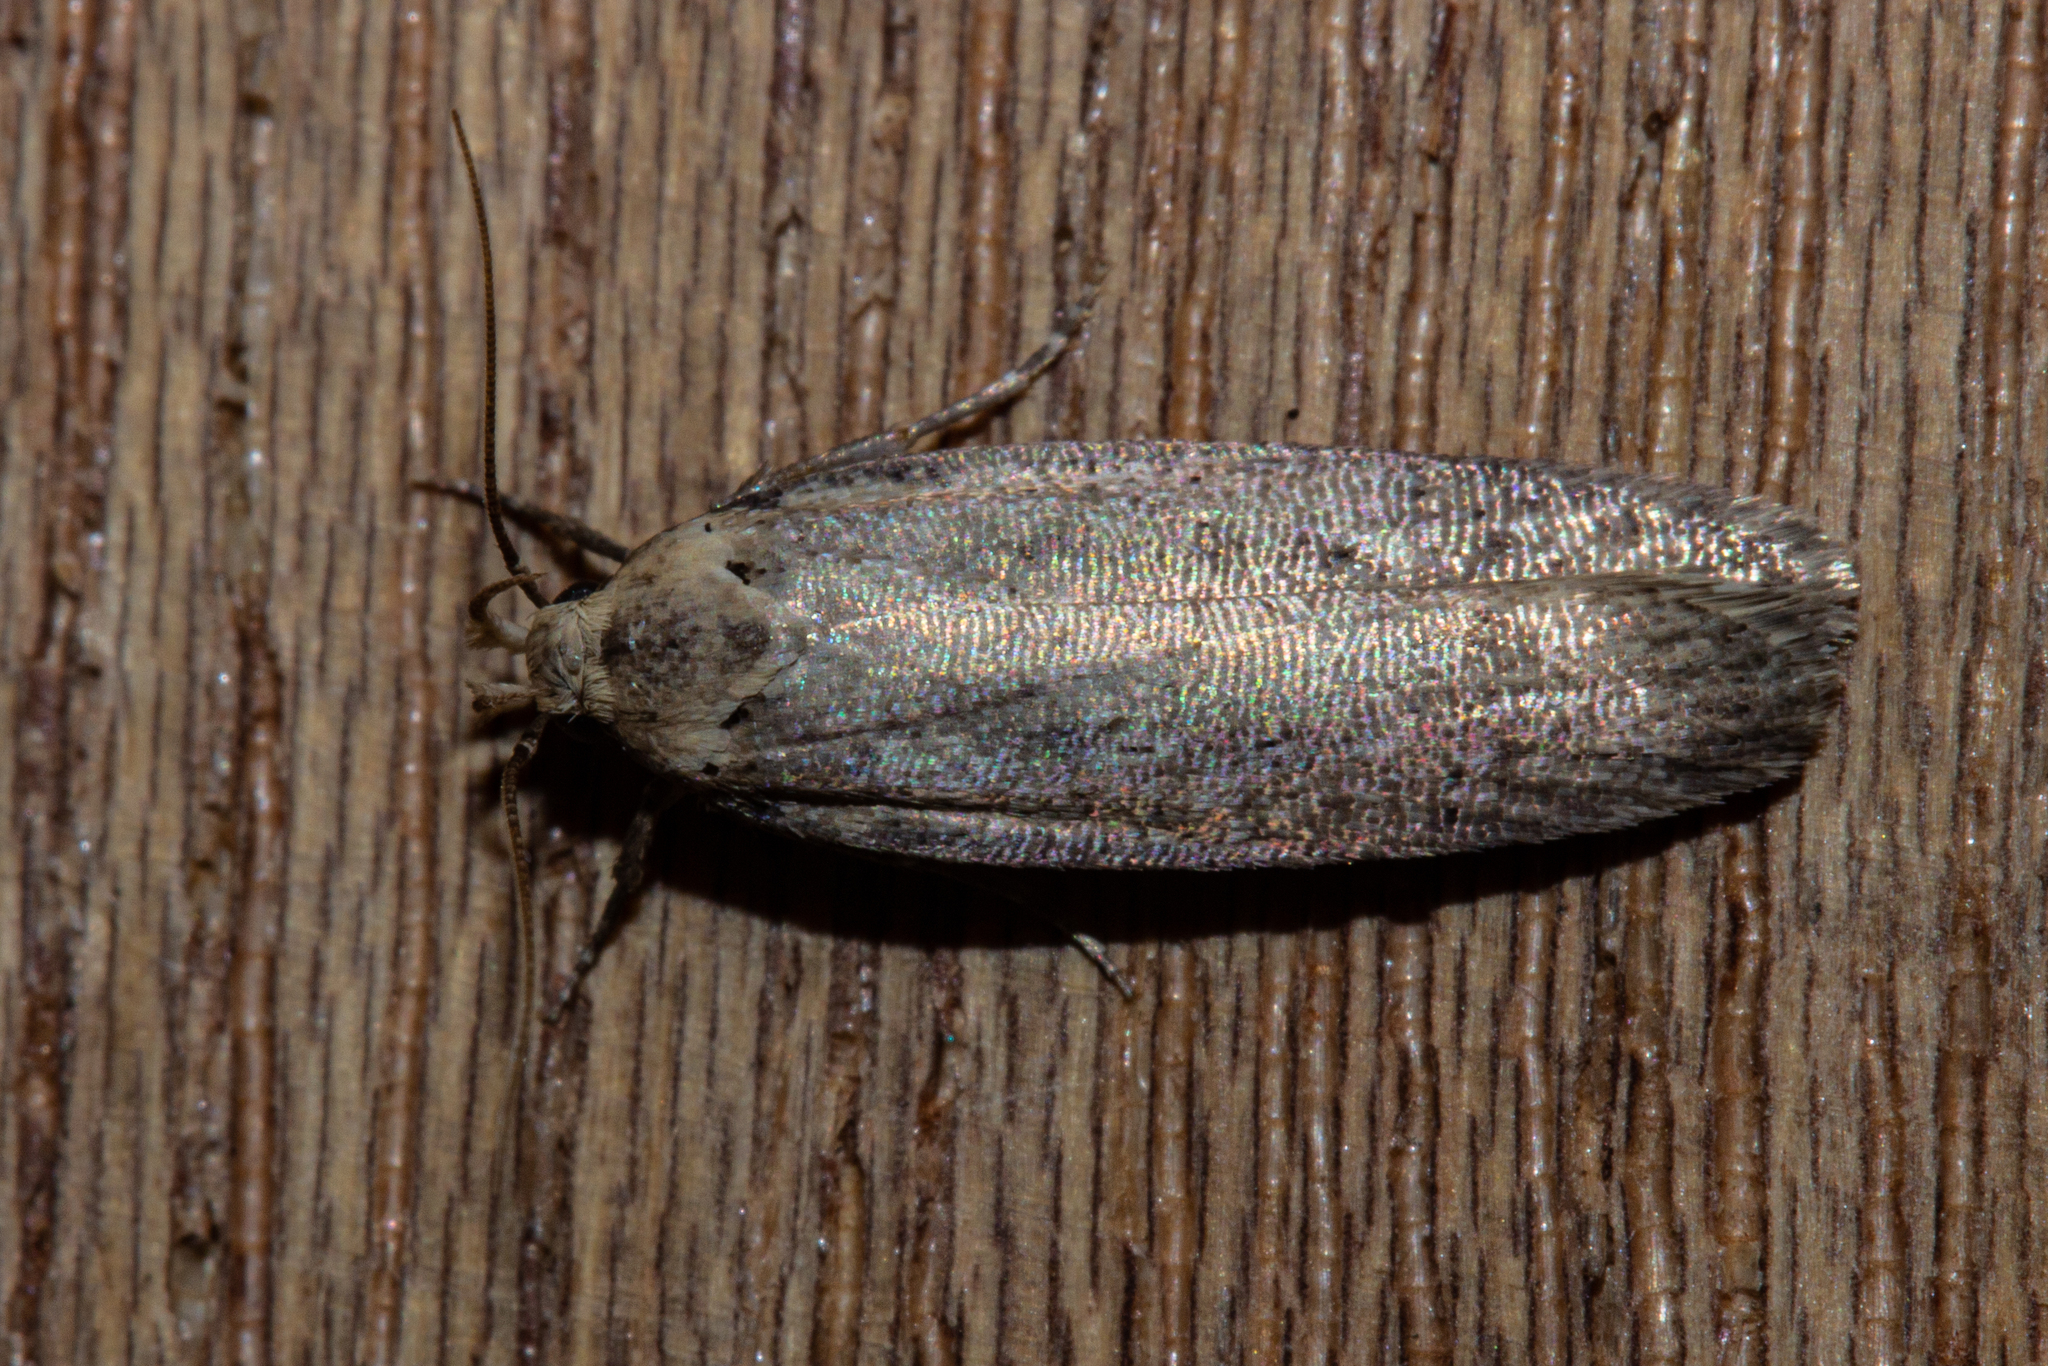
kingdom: Animalia
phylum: Arthropoda
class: Insecta
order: Lepidoptera
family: Gelechiidae
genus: Platyedra
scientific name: Platyedra subcinerea
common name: Moth
